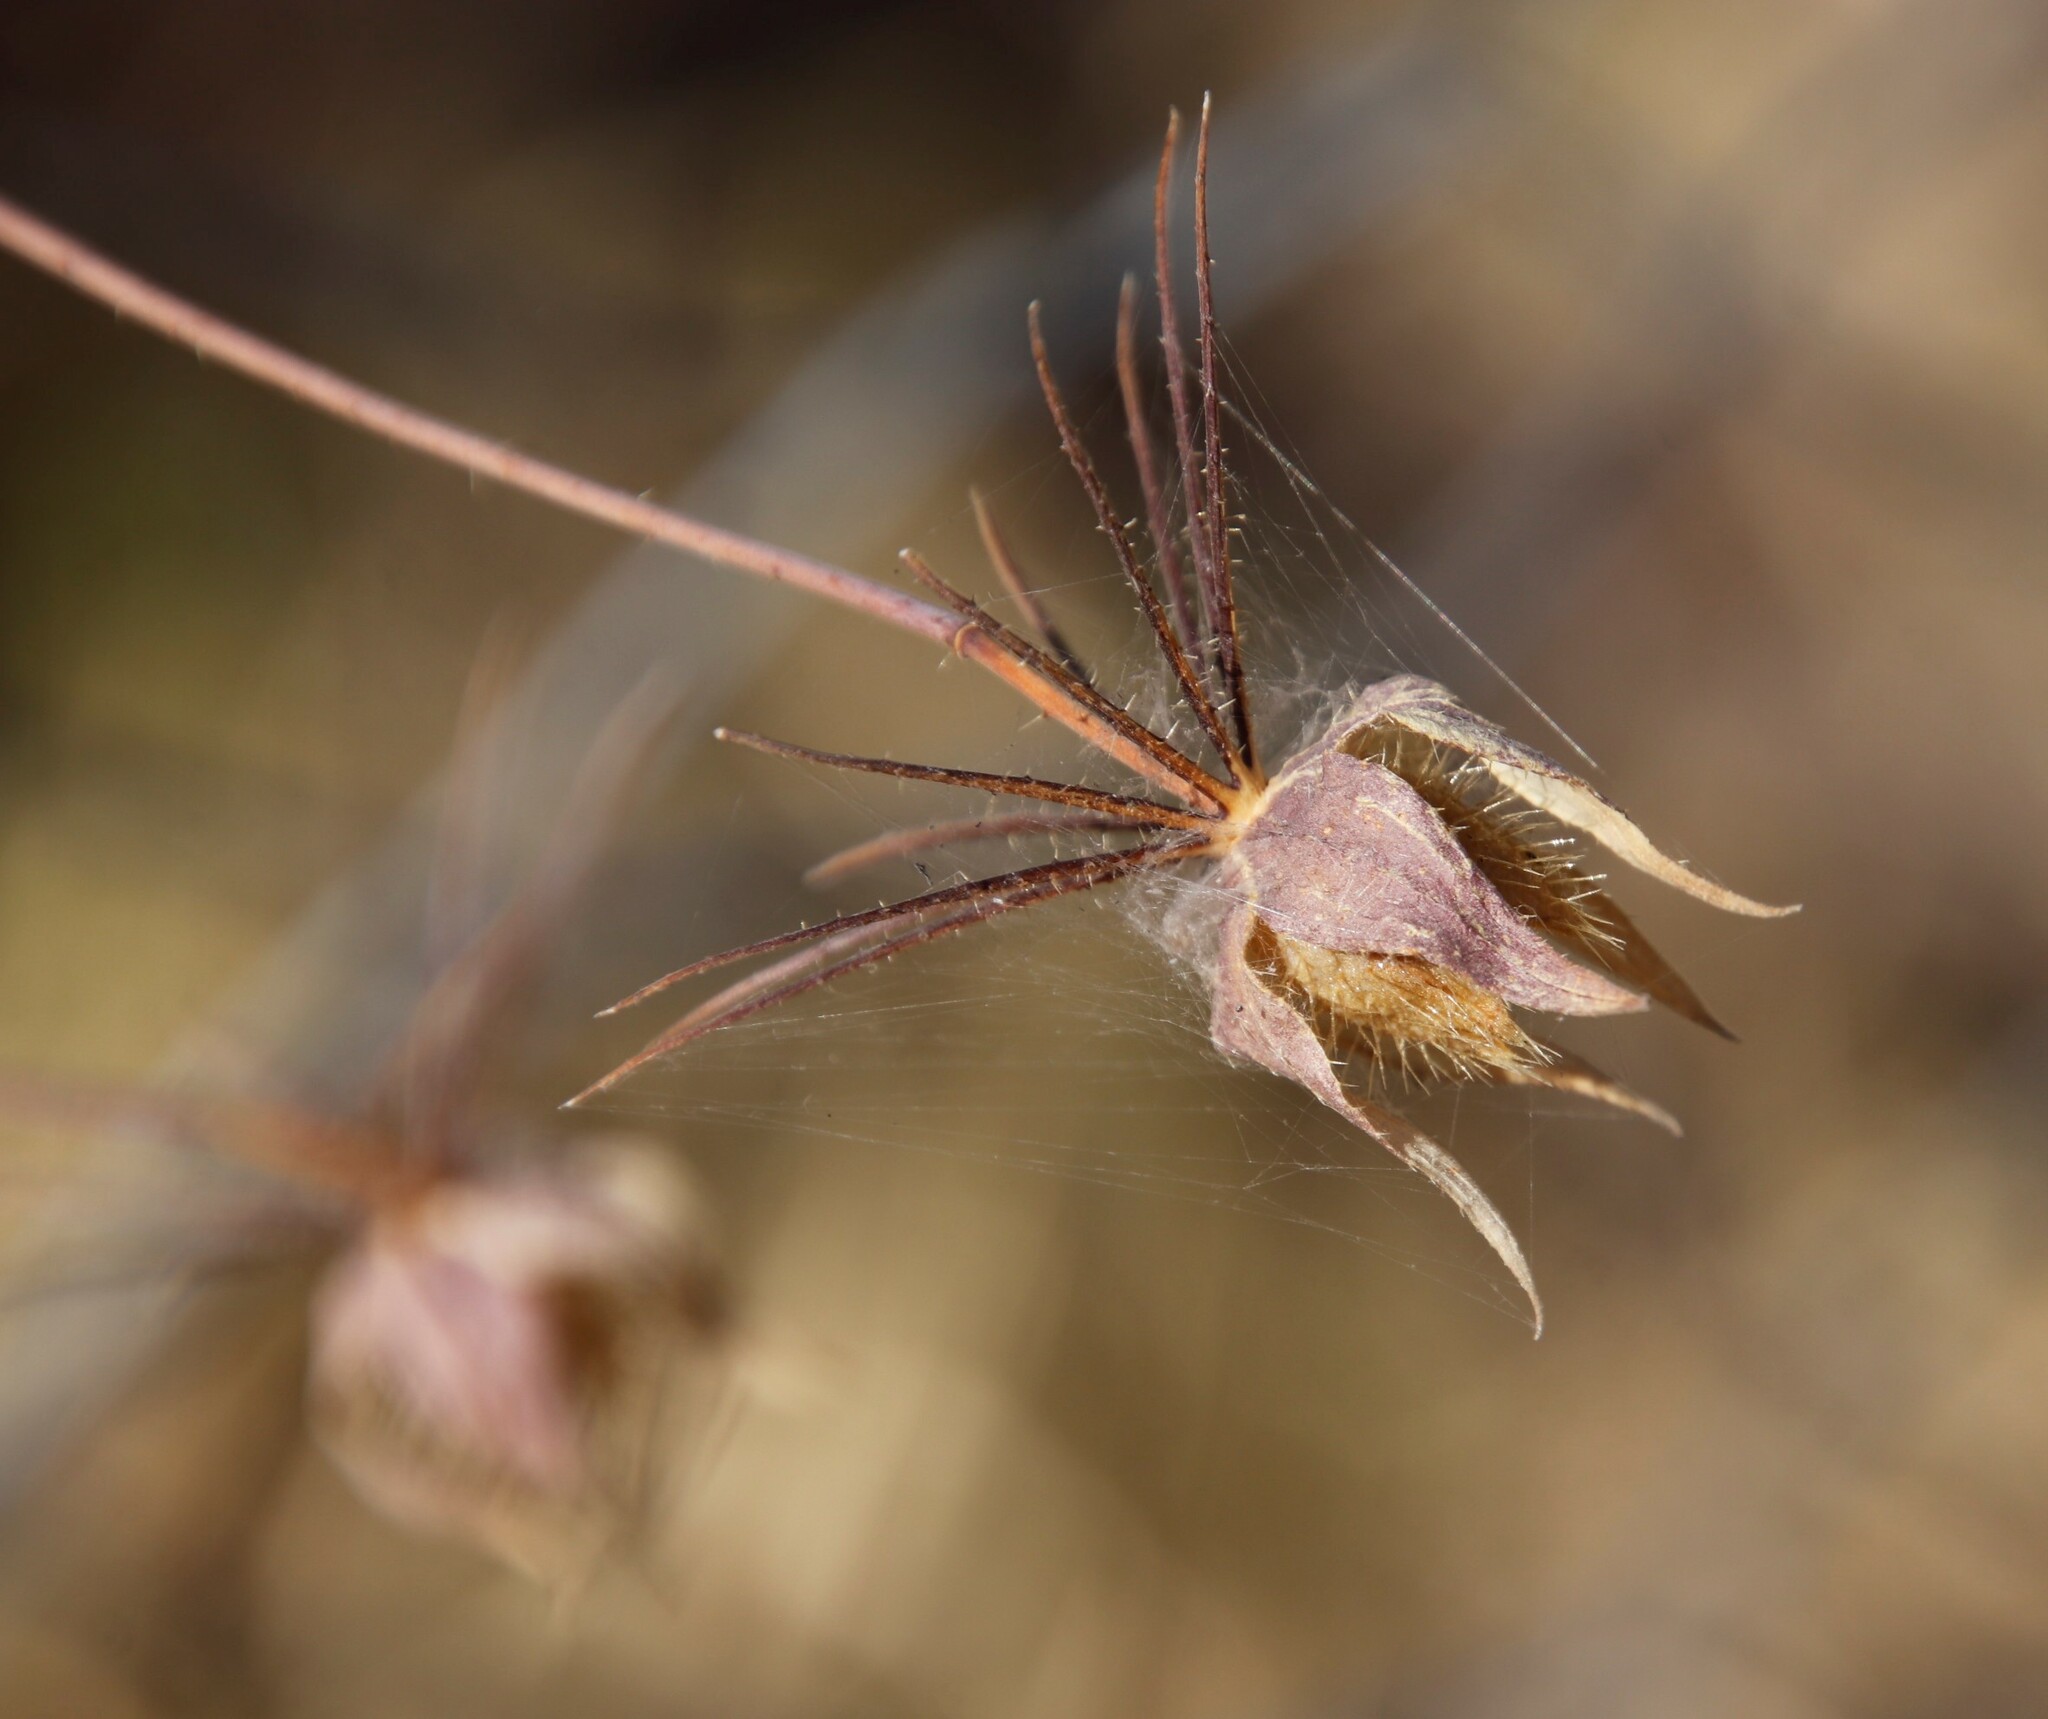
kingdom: Plantae
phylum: Tracheophyta
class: Magnoliopsida
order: Malvales
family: Malvaceae
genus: Hibiscus
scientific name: Hibiscus caesius
